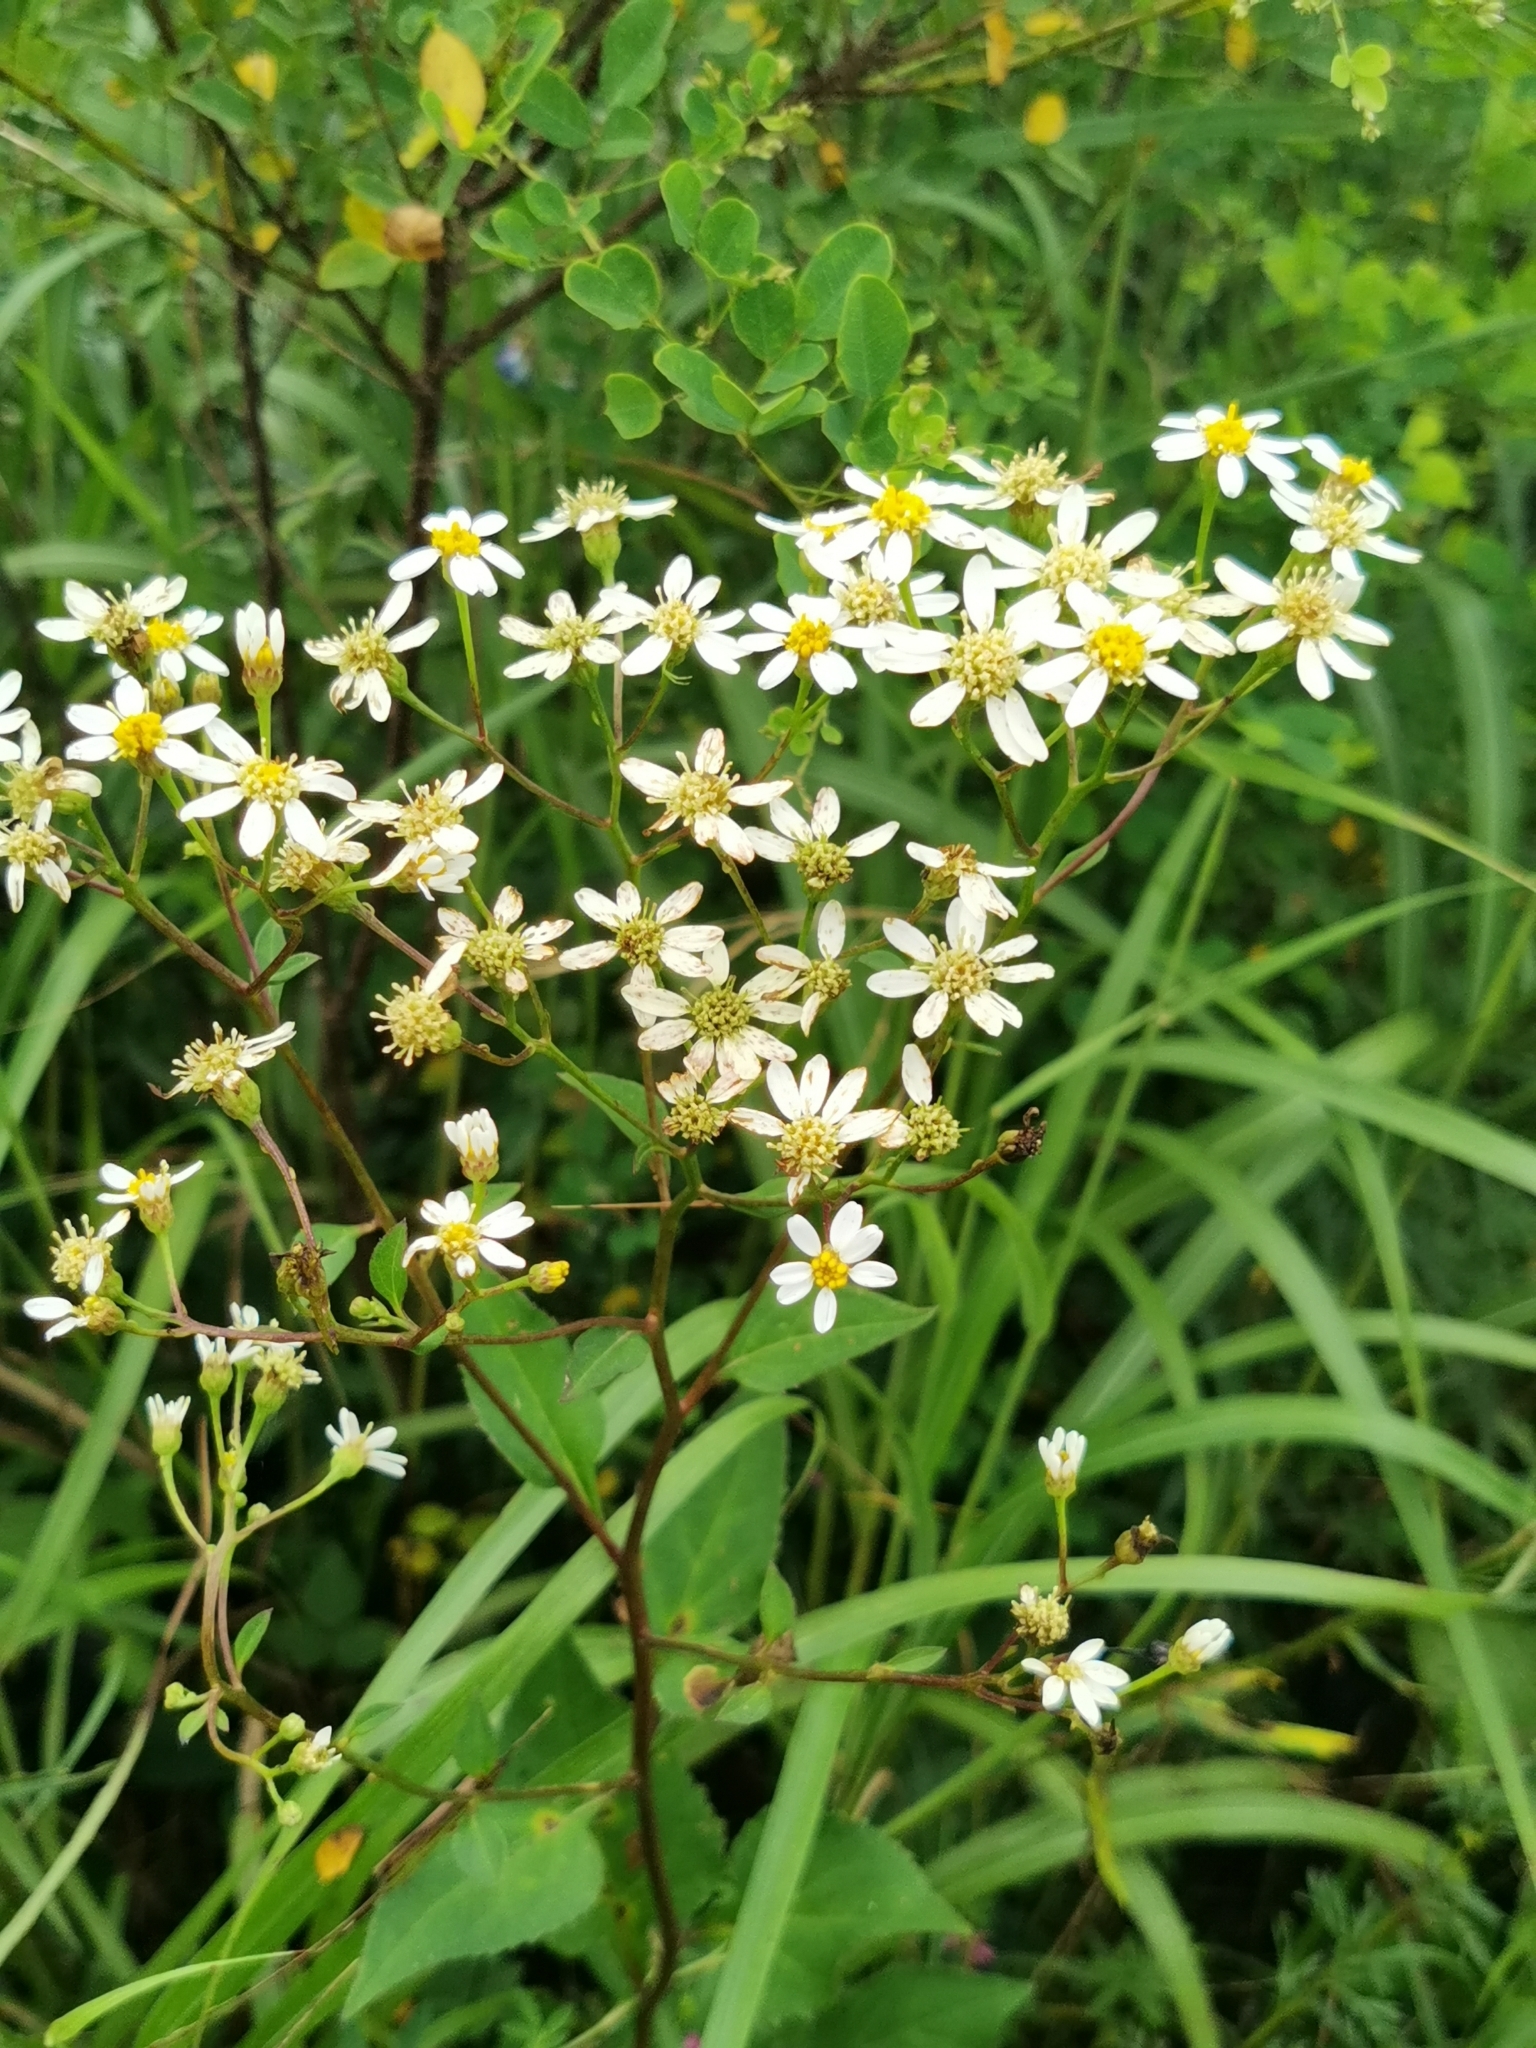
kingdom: Plantae
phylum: Tracheophyta
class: Magnoliopsida
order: Asterales
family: Asteraceae
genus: Aster
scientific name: Aster scaber
